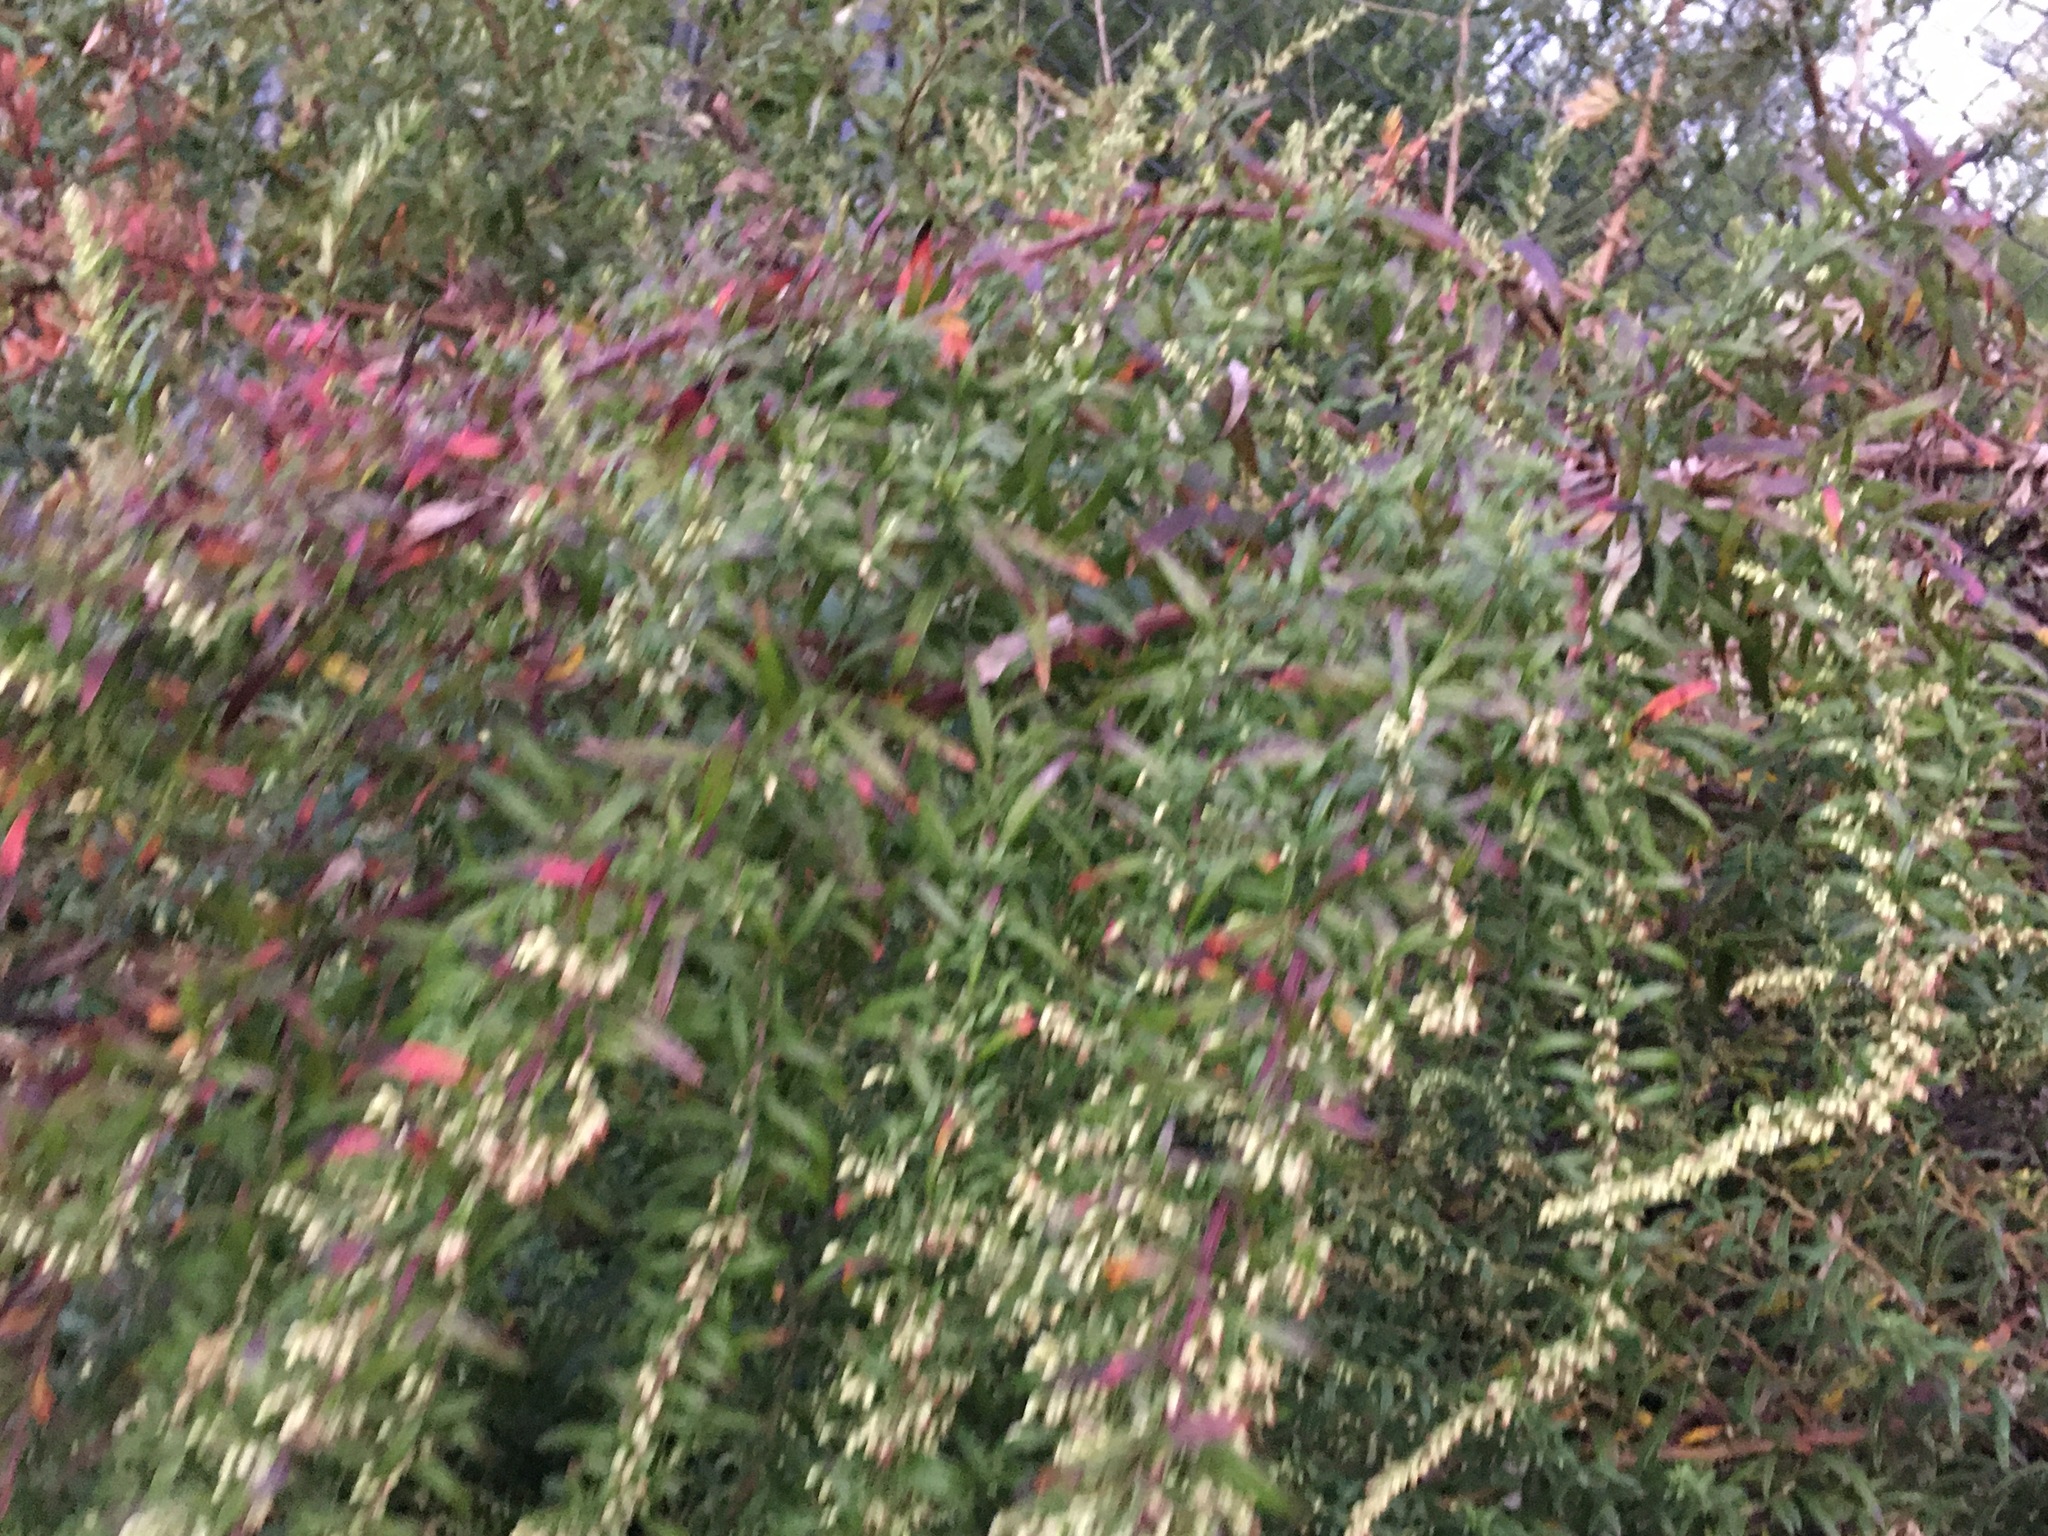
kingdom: Plantae
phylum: Tracheophyta
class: Magnoliopsida
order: Asterales
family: Asteraceae
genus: Artemisia
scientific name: Artemisia vulgaris
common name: Mugwort
